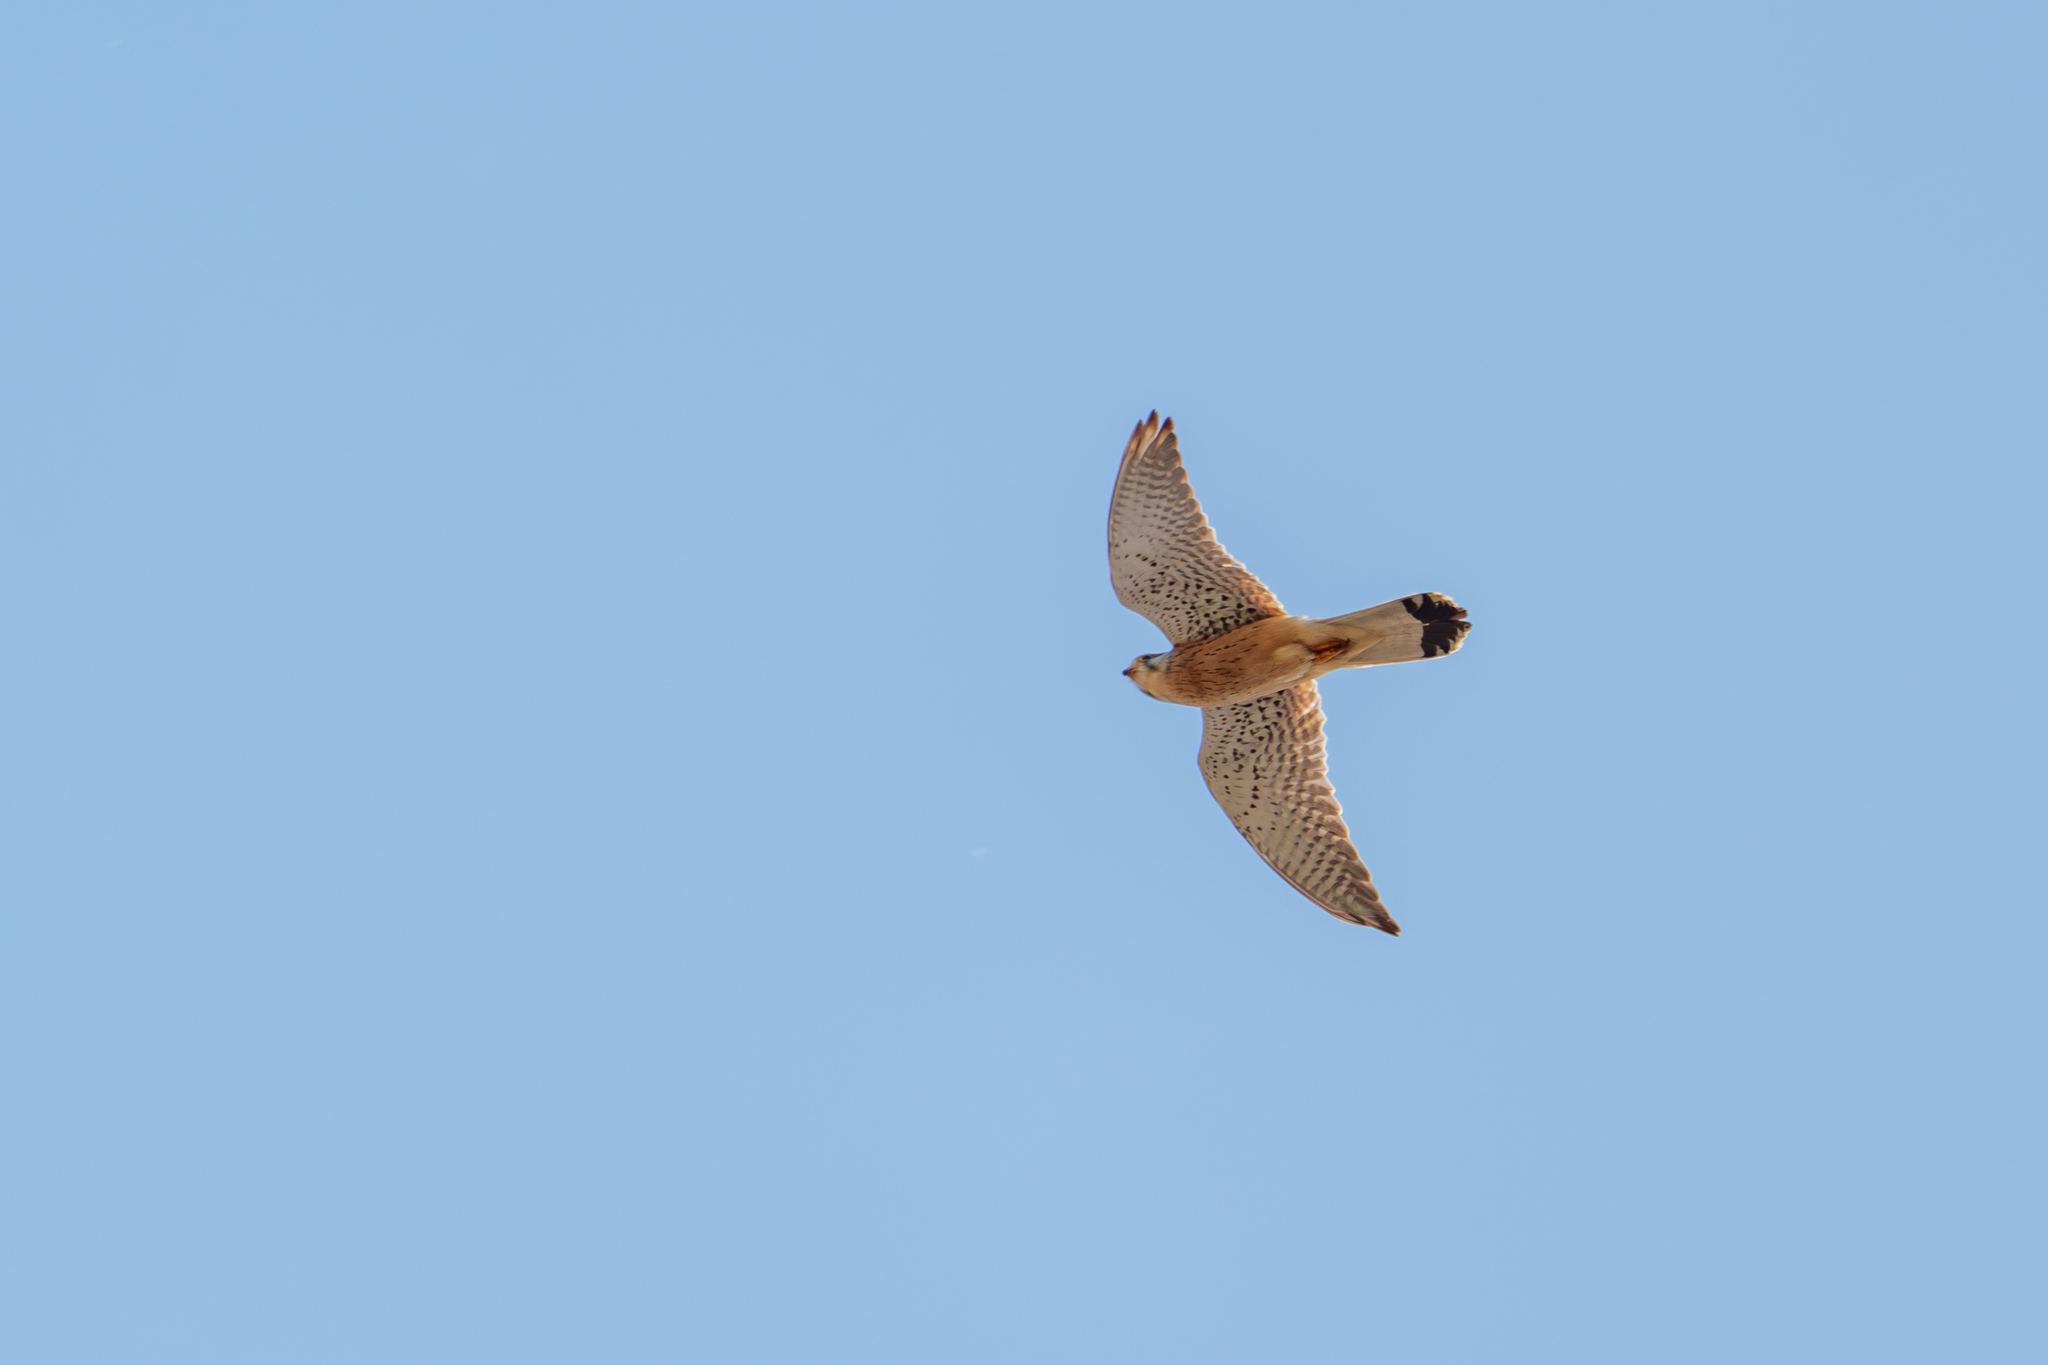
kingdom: Animalia
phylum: Chordata
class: Aves
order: Falconiformes
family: Falconidae
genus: Falco
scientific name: Falco tinnunculus
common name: Common kestrel
